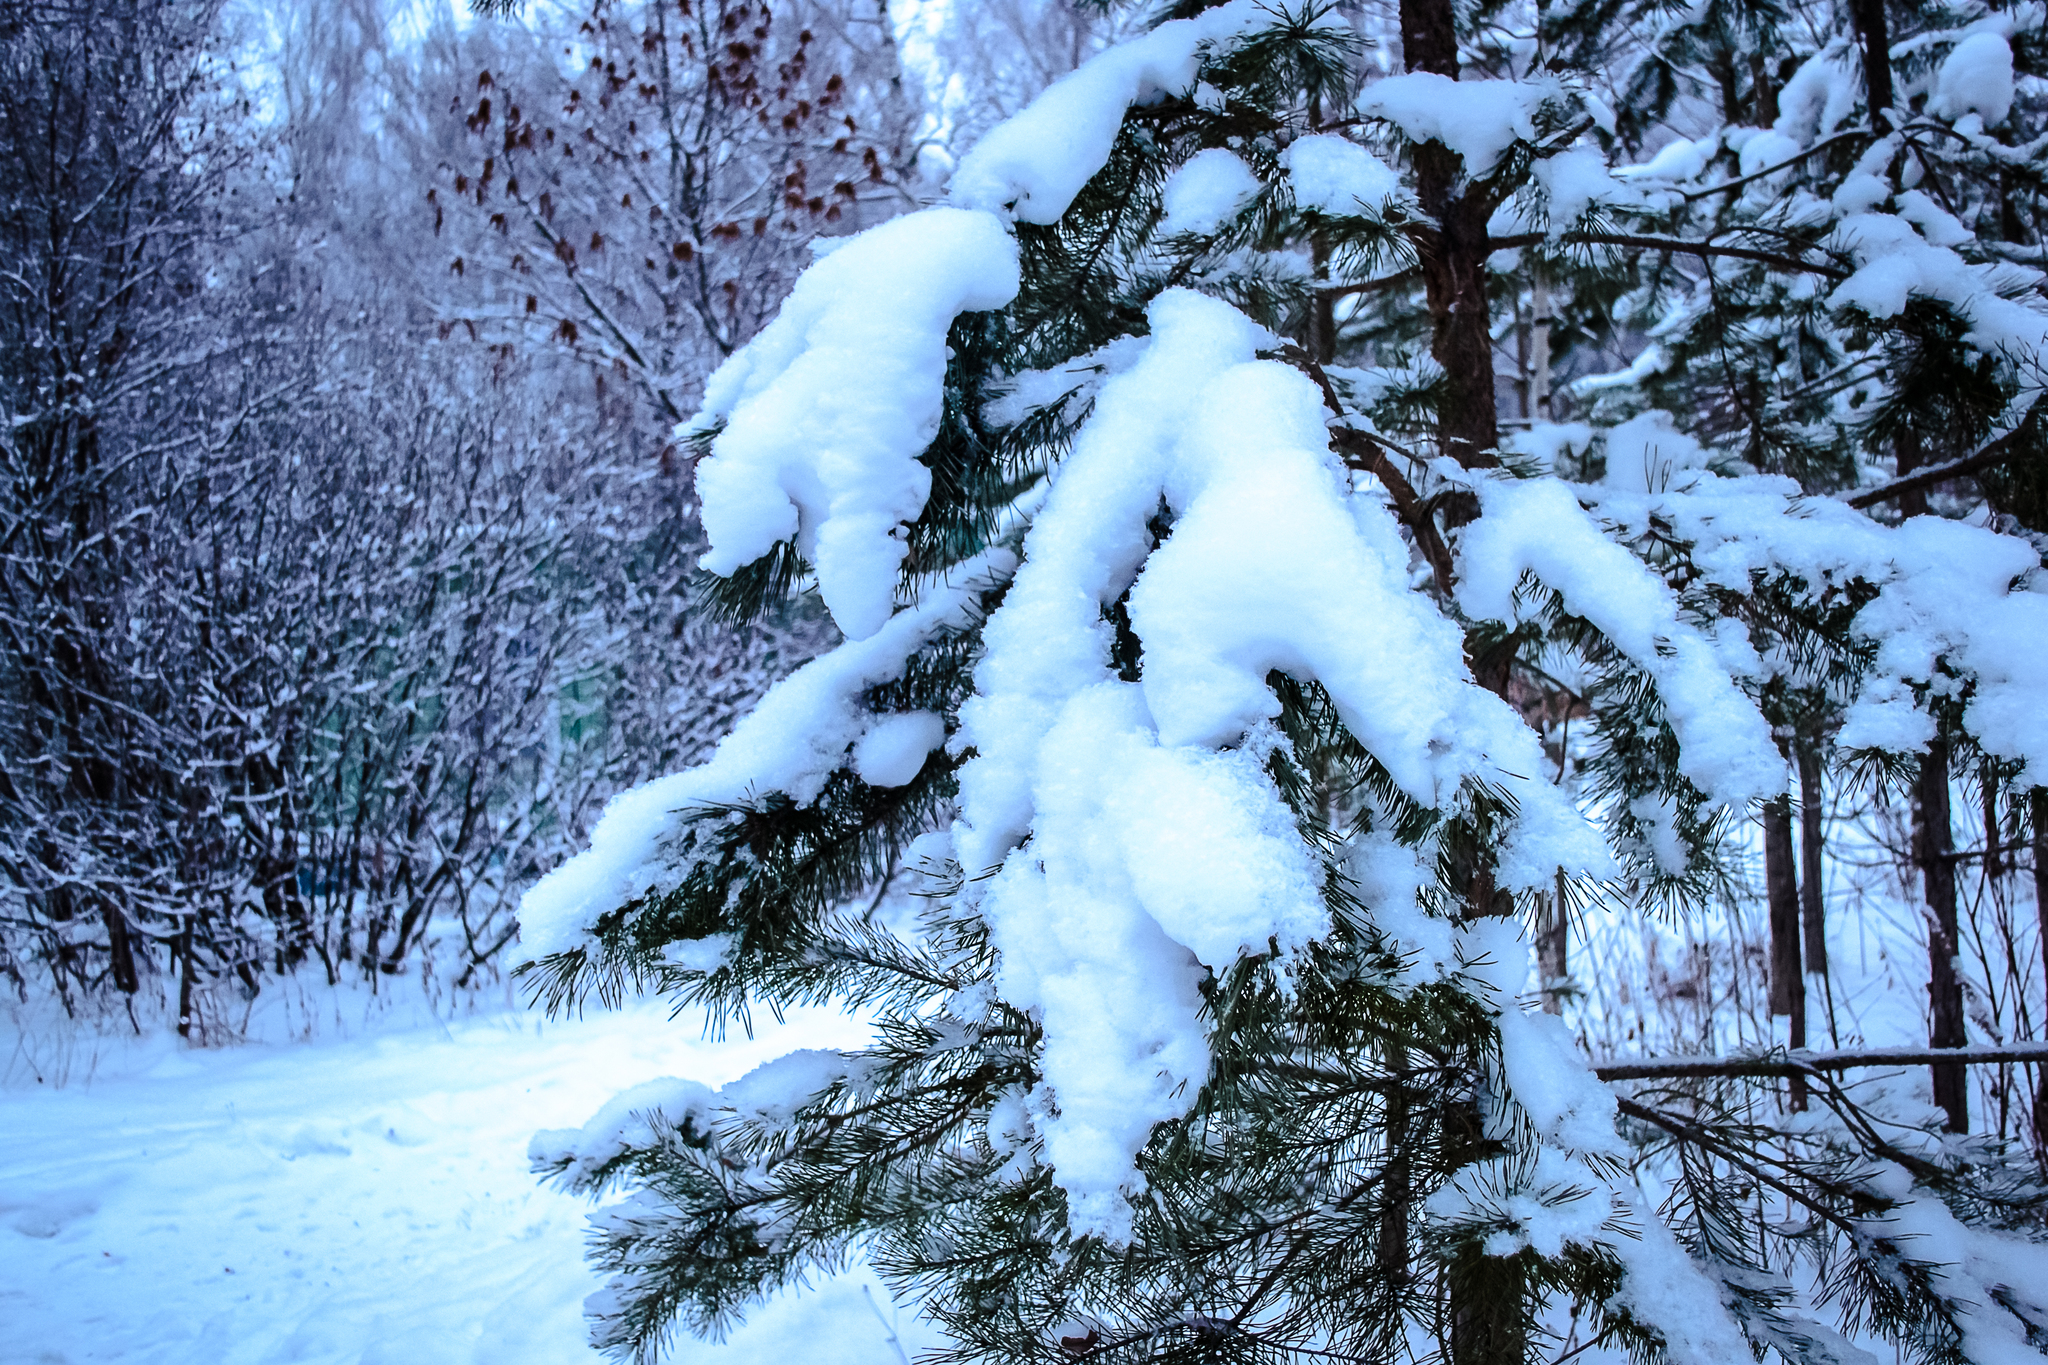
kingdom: Plantae
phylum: Tracheophyta
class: Pinopsida
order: Pinales
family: Pinaceae
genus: Pinus
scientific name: Pinus sylvestris
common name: Scots pine
